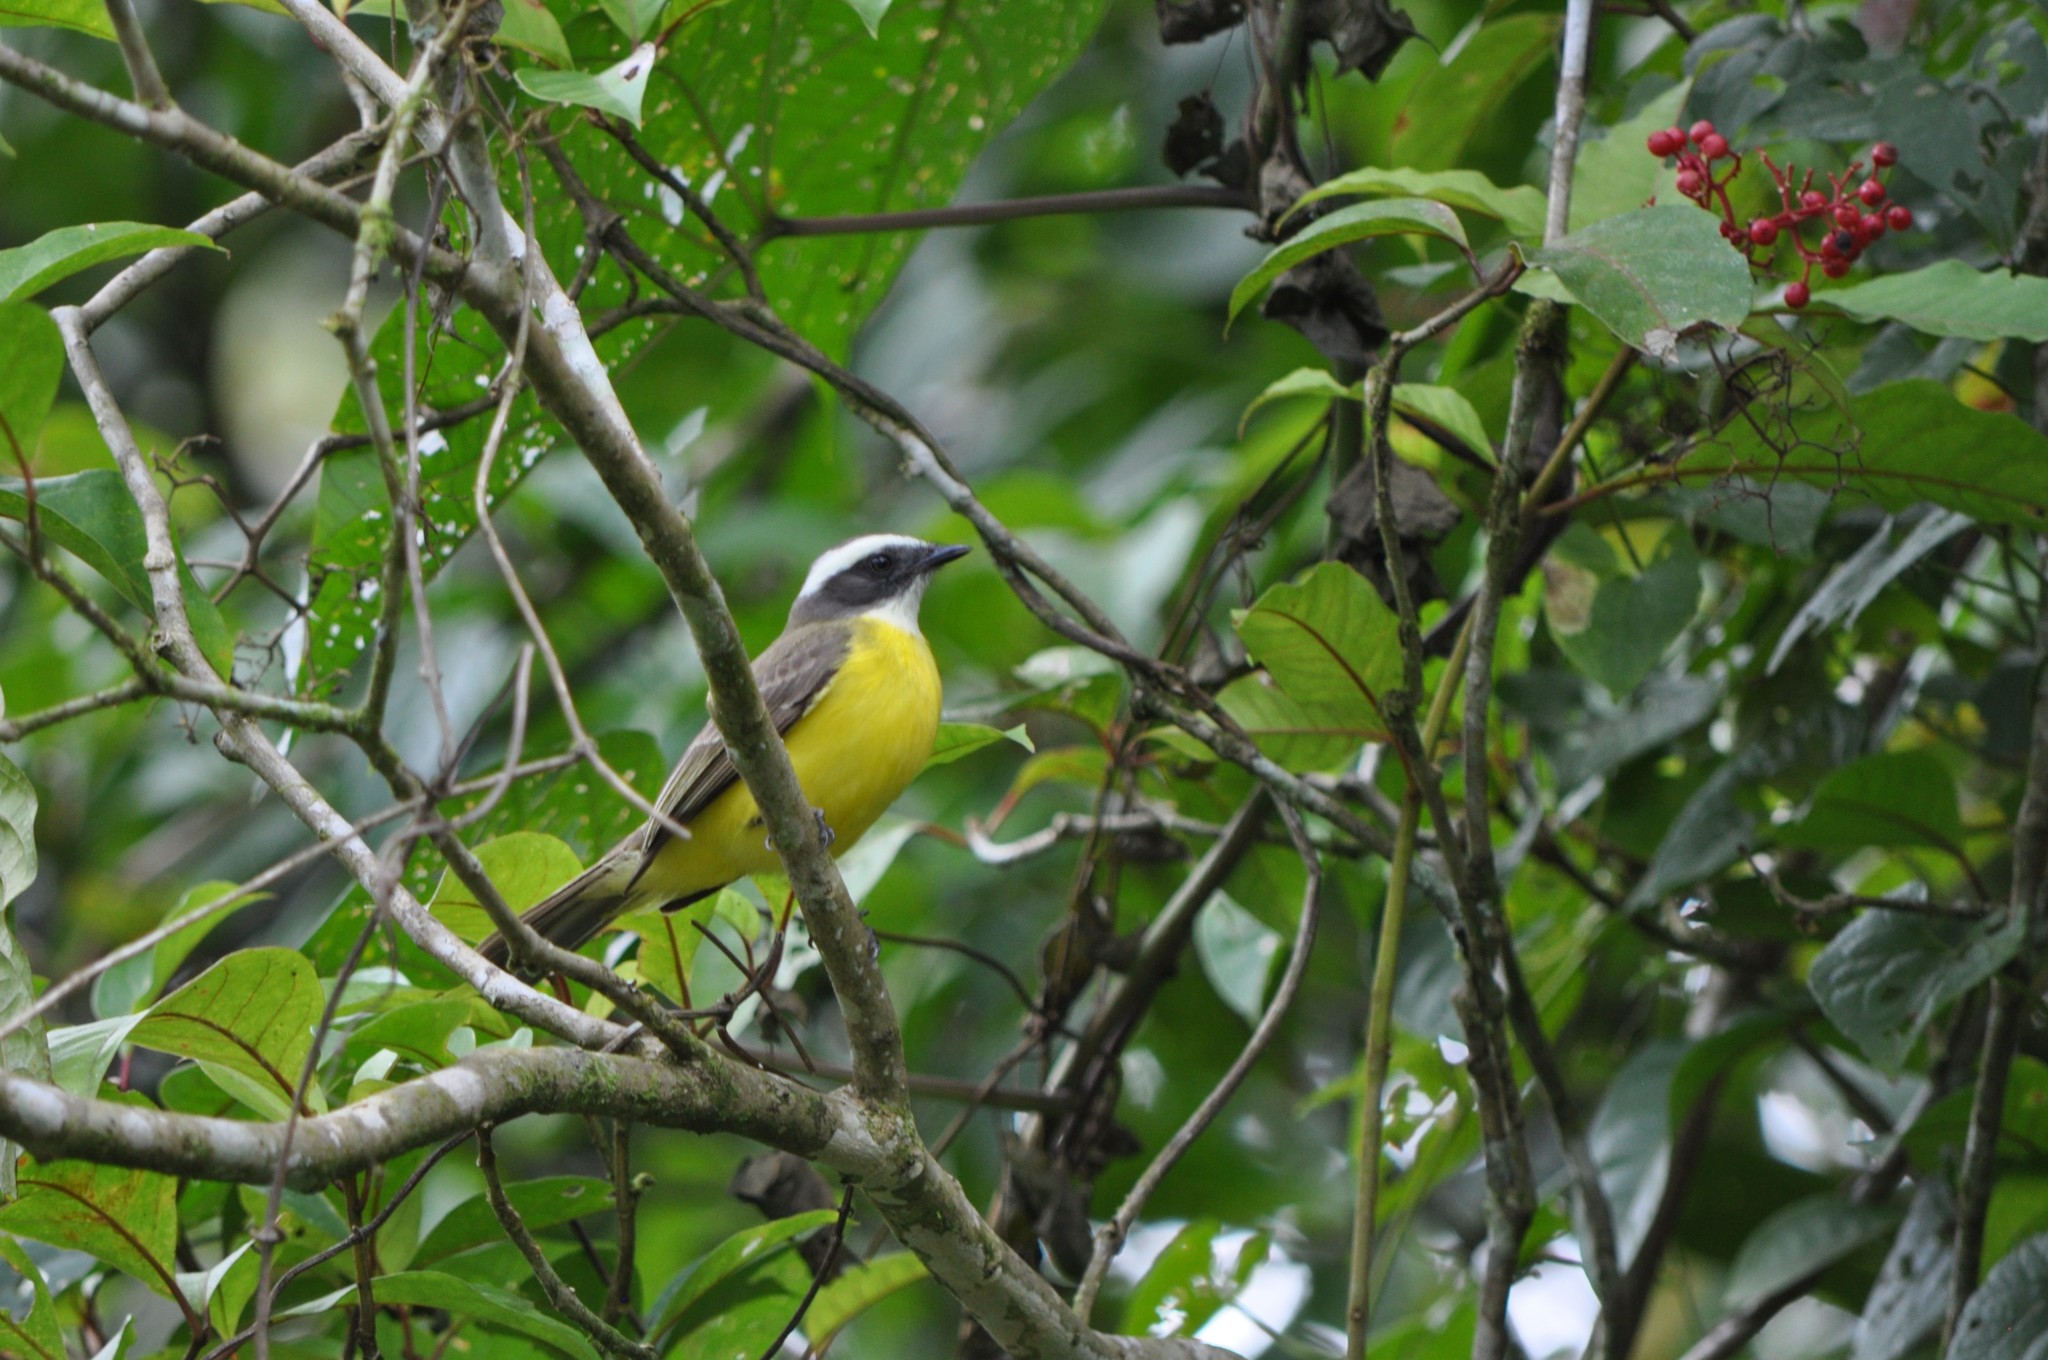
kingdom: Animalia
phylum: Chordata
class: Aves
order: Passeriformes
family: Tyrannidae
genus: Myiozetetes
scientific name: Myiozetetes similis
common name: Social flycatcher
